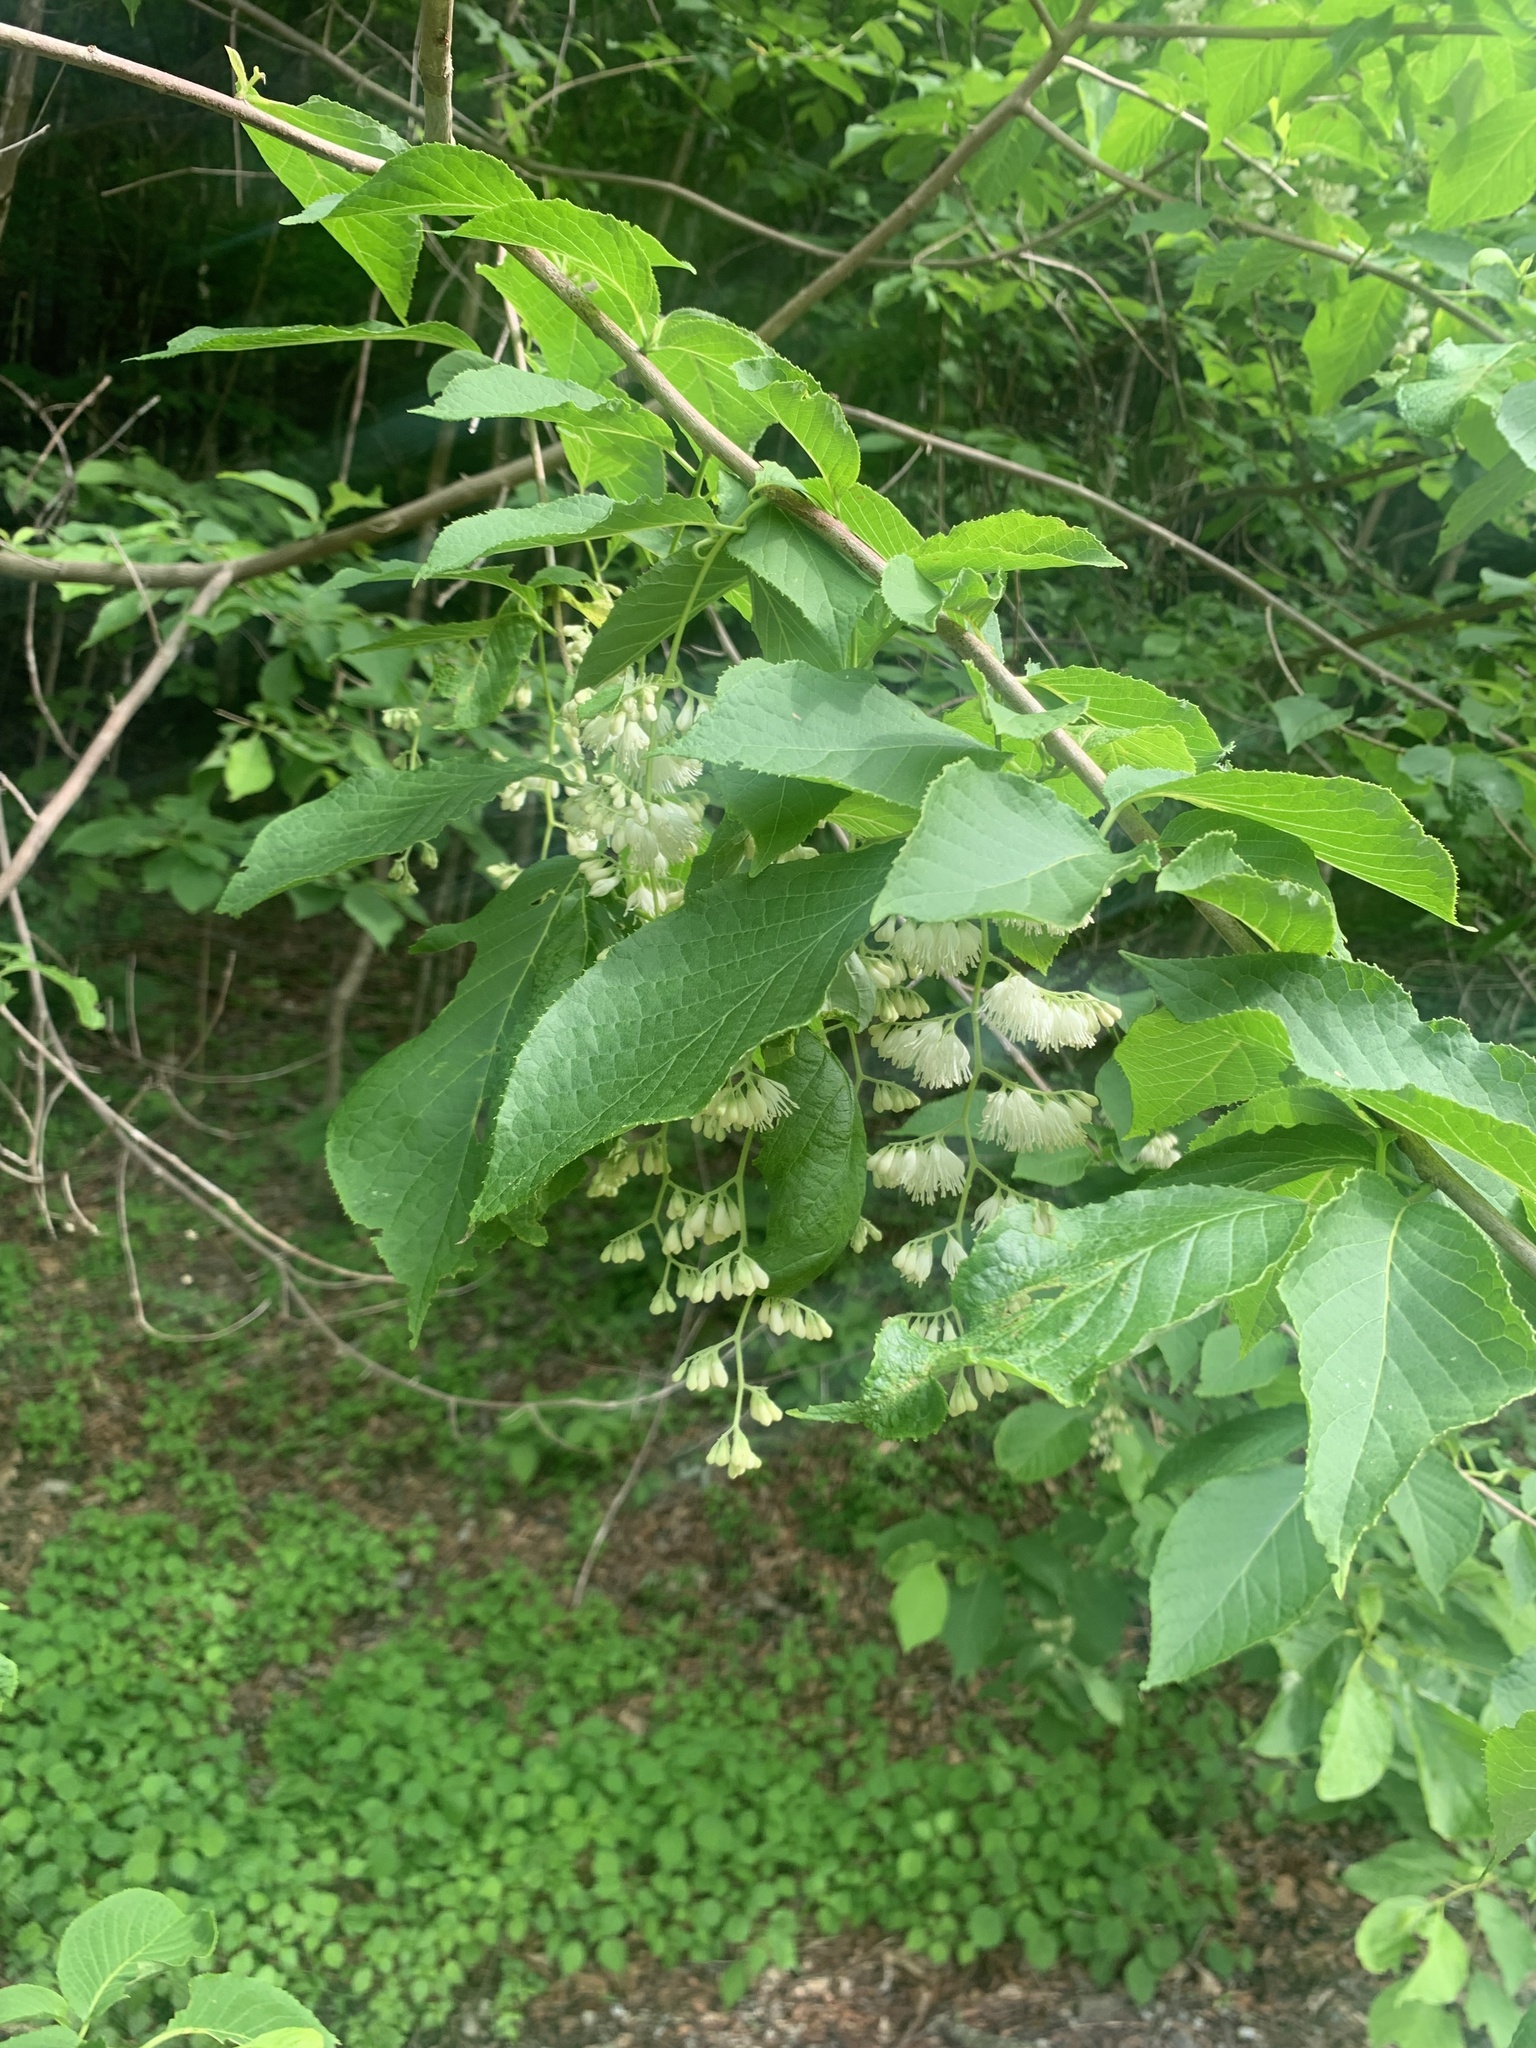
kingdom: Plantae
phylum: Tracheophyta
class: Magnoliopsida
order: Ericales
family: Styracaceae
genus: Pterostyrax
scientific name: Pterostyrax hispidus
